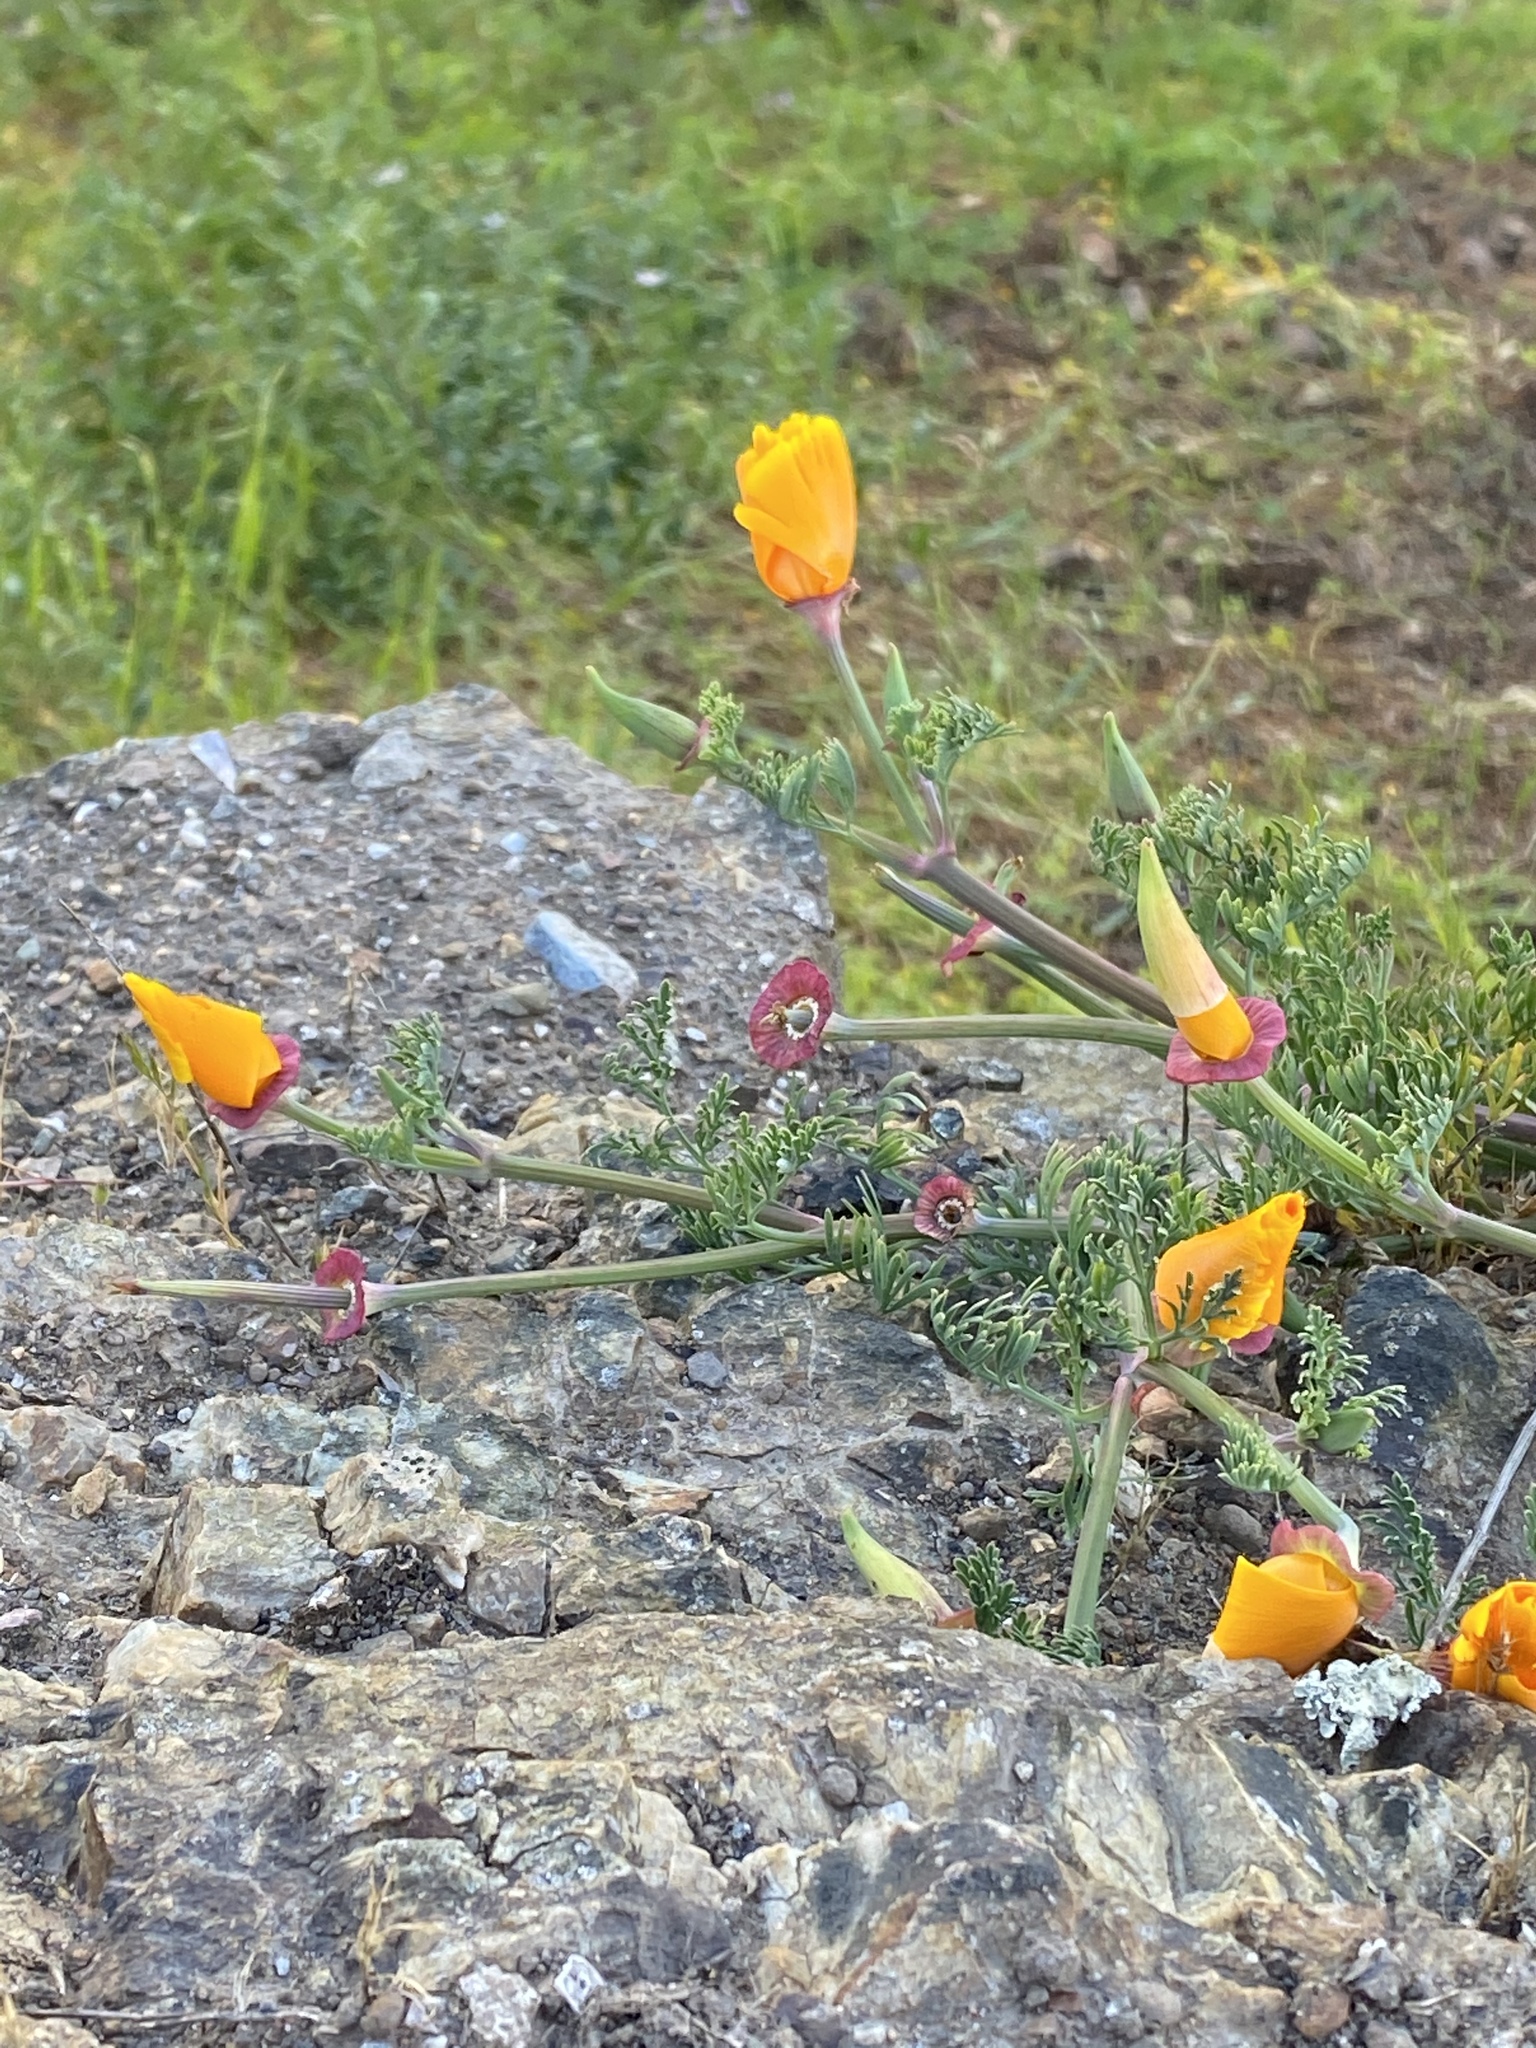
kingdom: Plantae
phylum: Tracheophyta
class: Magnoliopsida
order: Ranunculales
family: Papaveraceae
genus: Eschscholzia
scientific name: Eschscholzia californica
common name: California poppy
